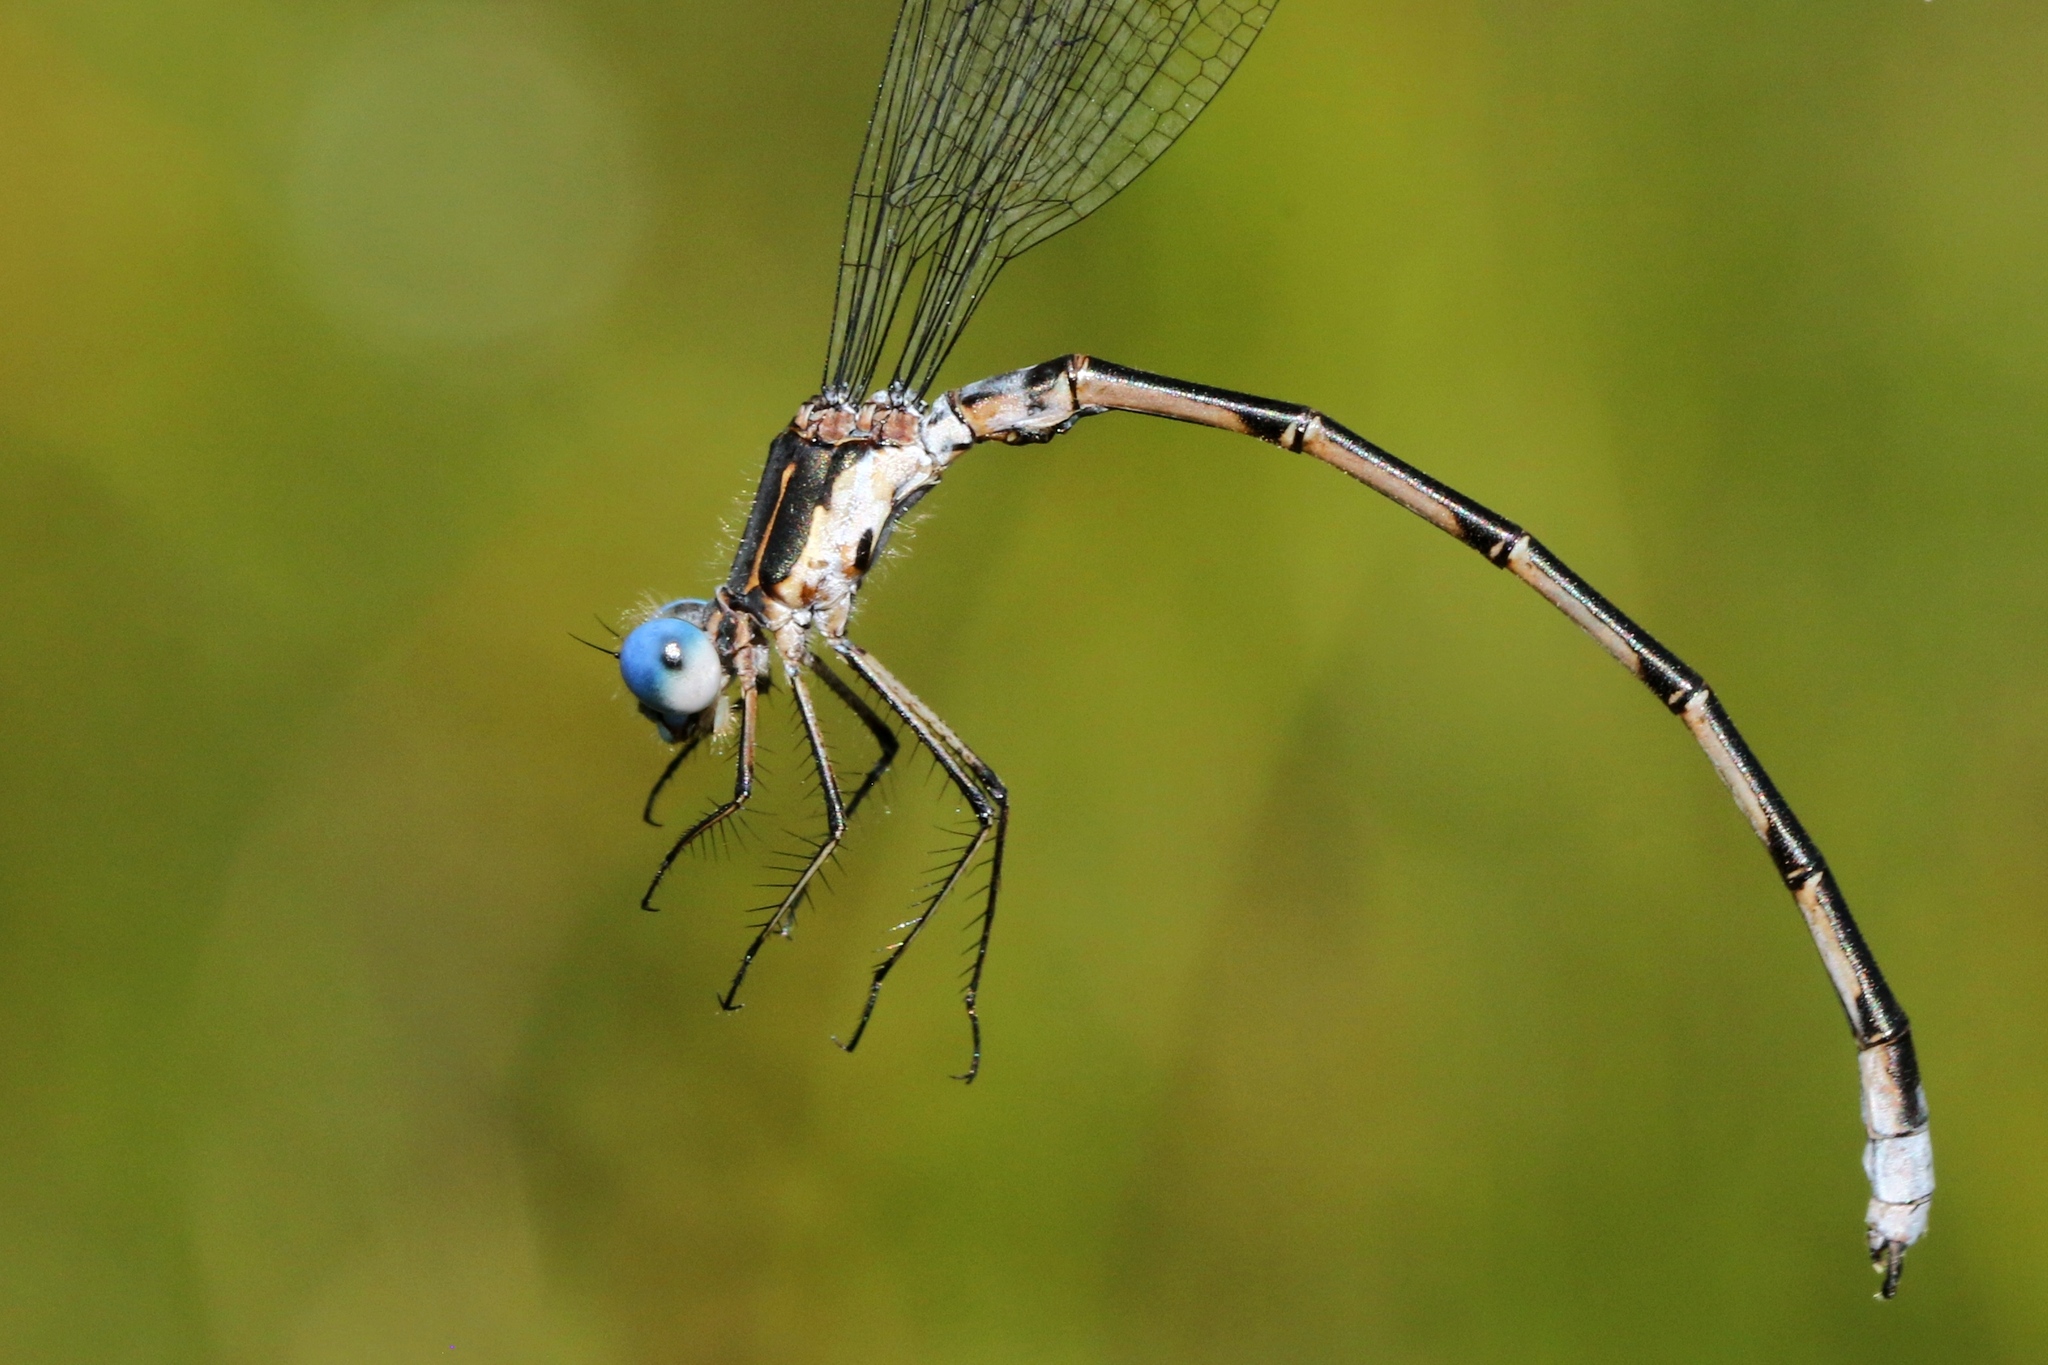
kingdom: Animalia
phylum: Arthropoda
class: Insecta
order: Odonata
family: Lestidae
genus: Lestes
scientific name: Lestes congener
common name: Spotted spreadwing
